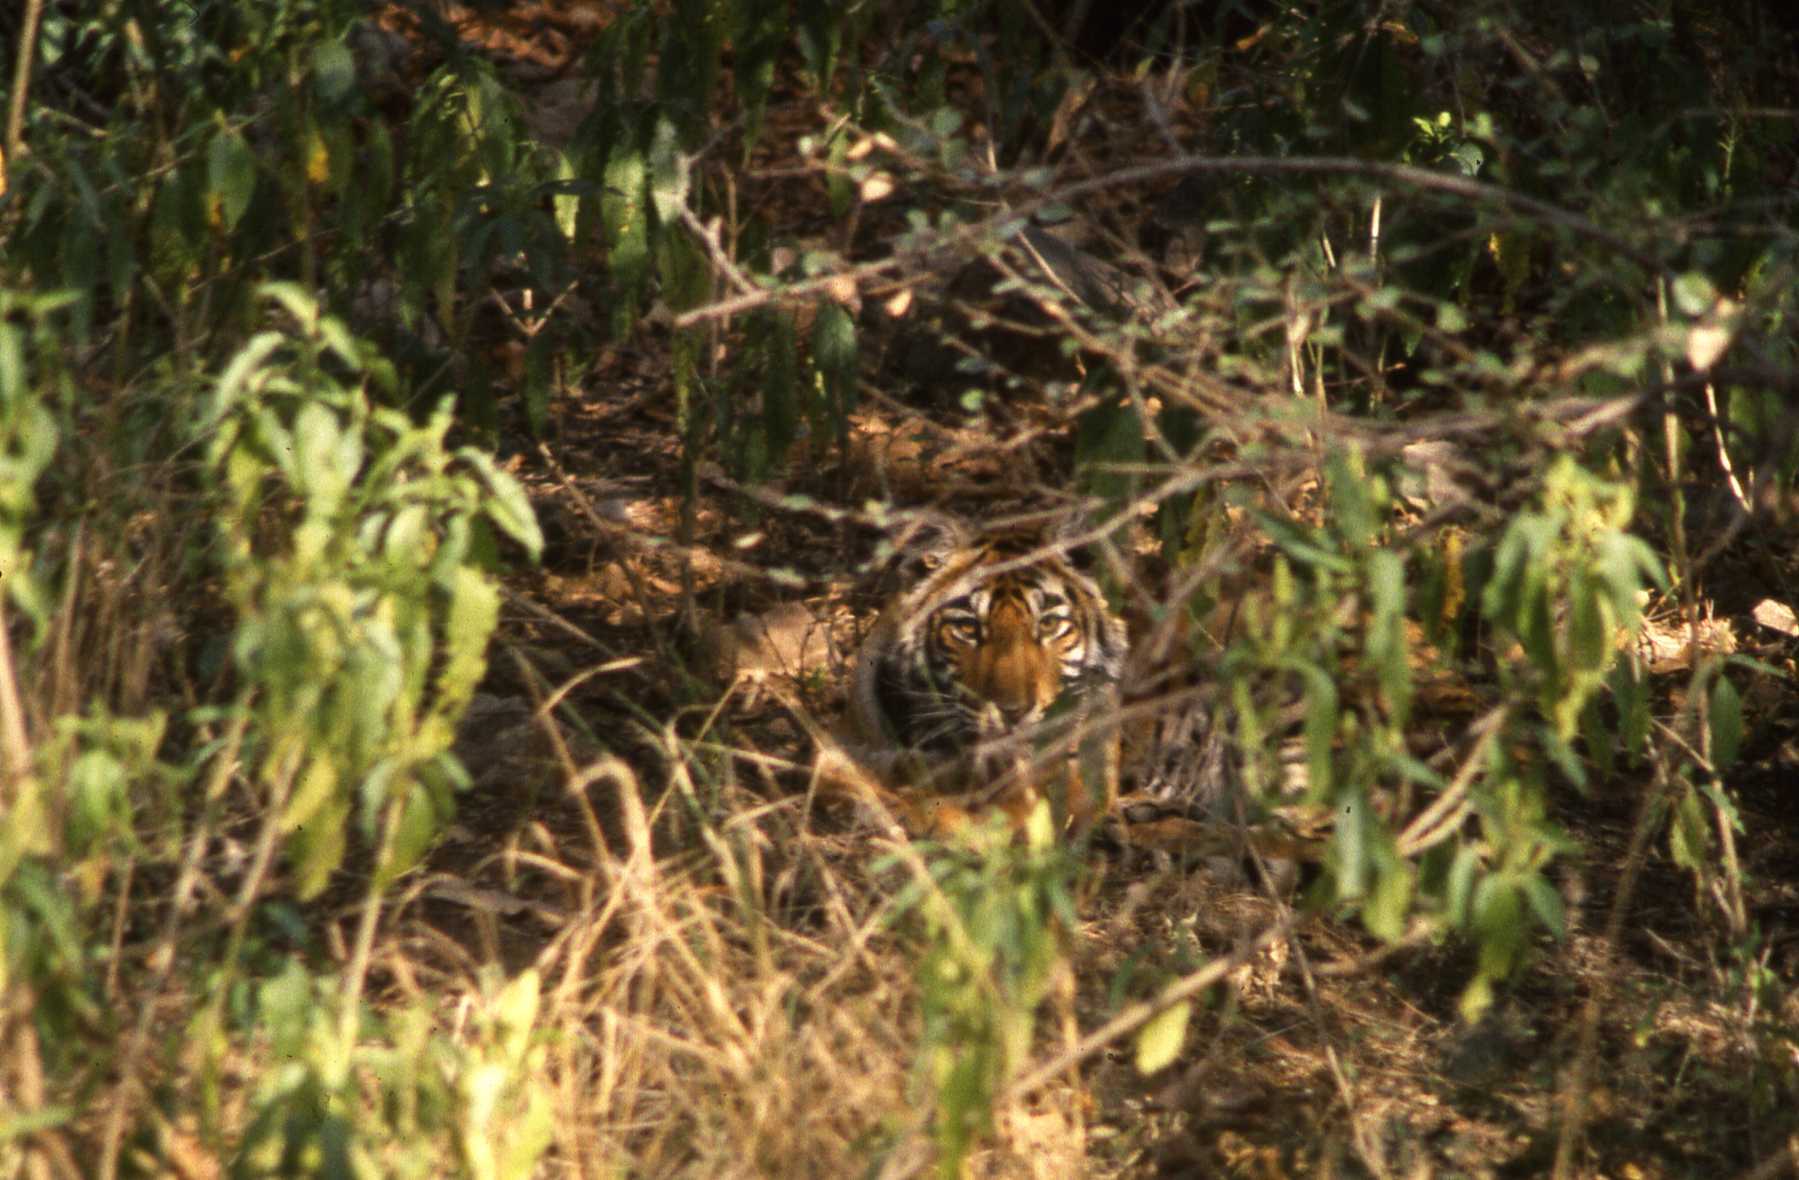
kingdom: Animalia
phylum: Chordata
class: Mammalia
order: Carnivora
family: Felidae
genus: Panthera
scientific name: Panthera tigris
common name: Tiger
